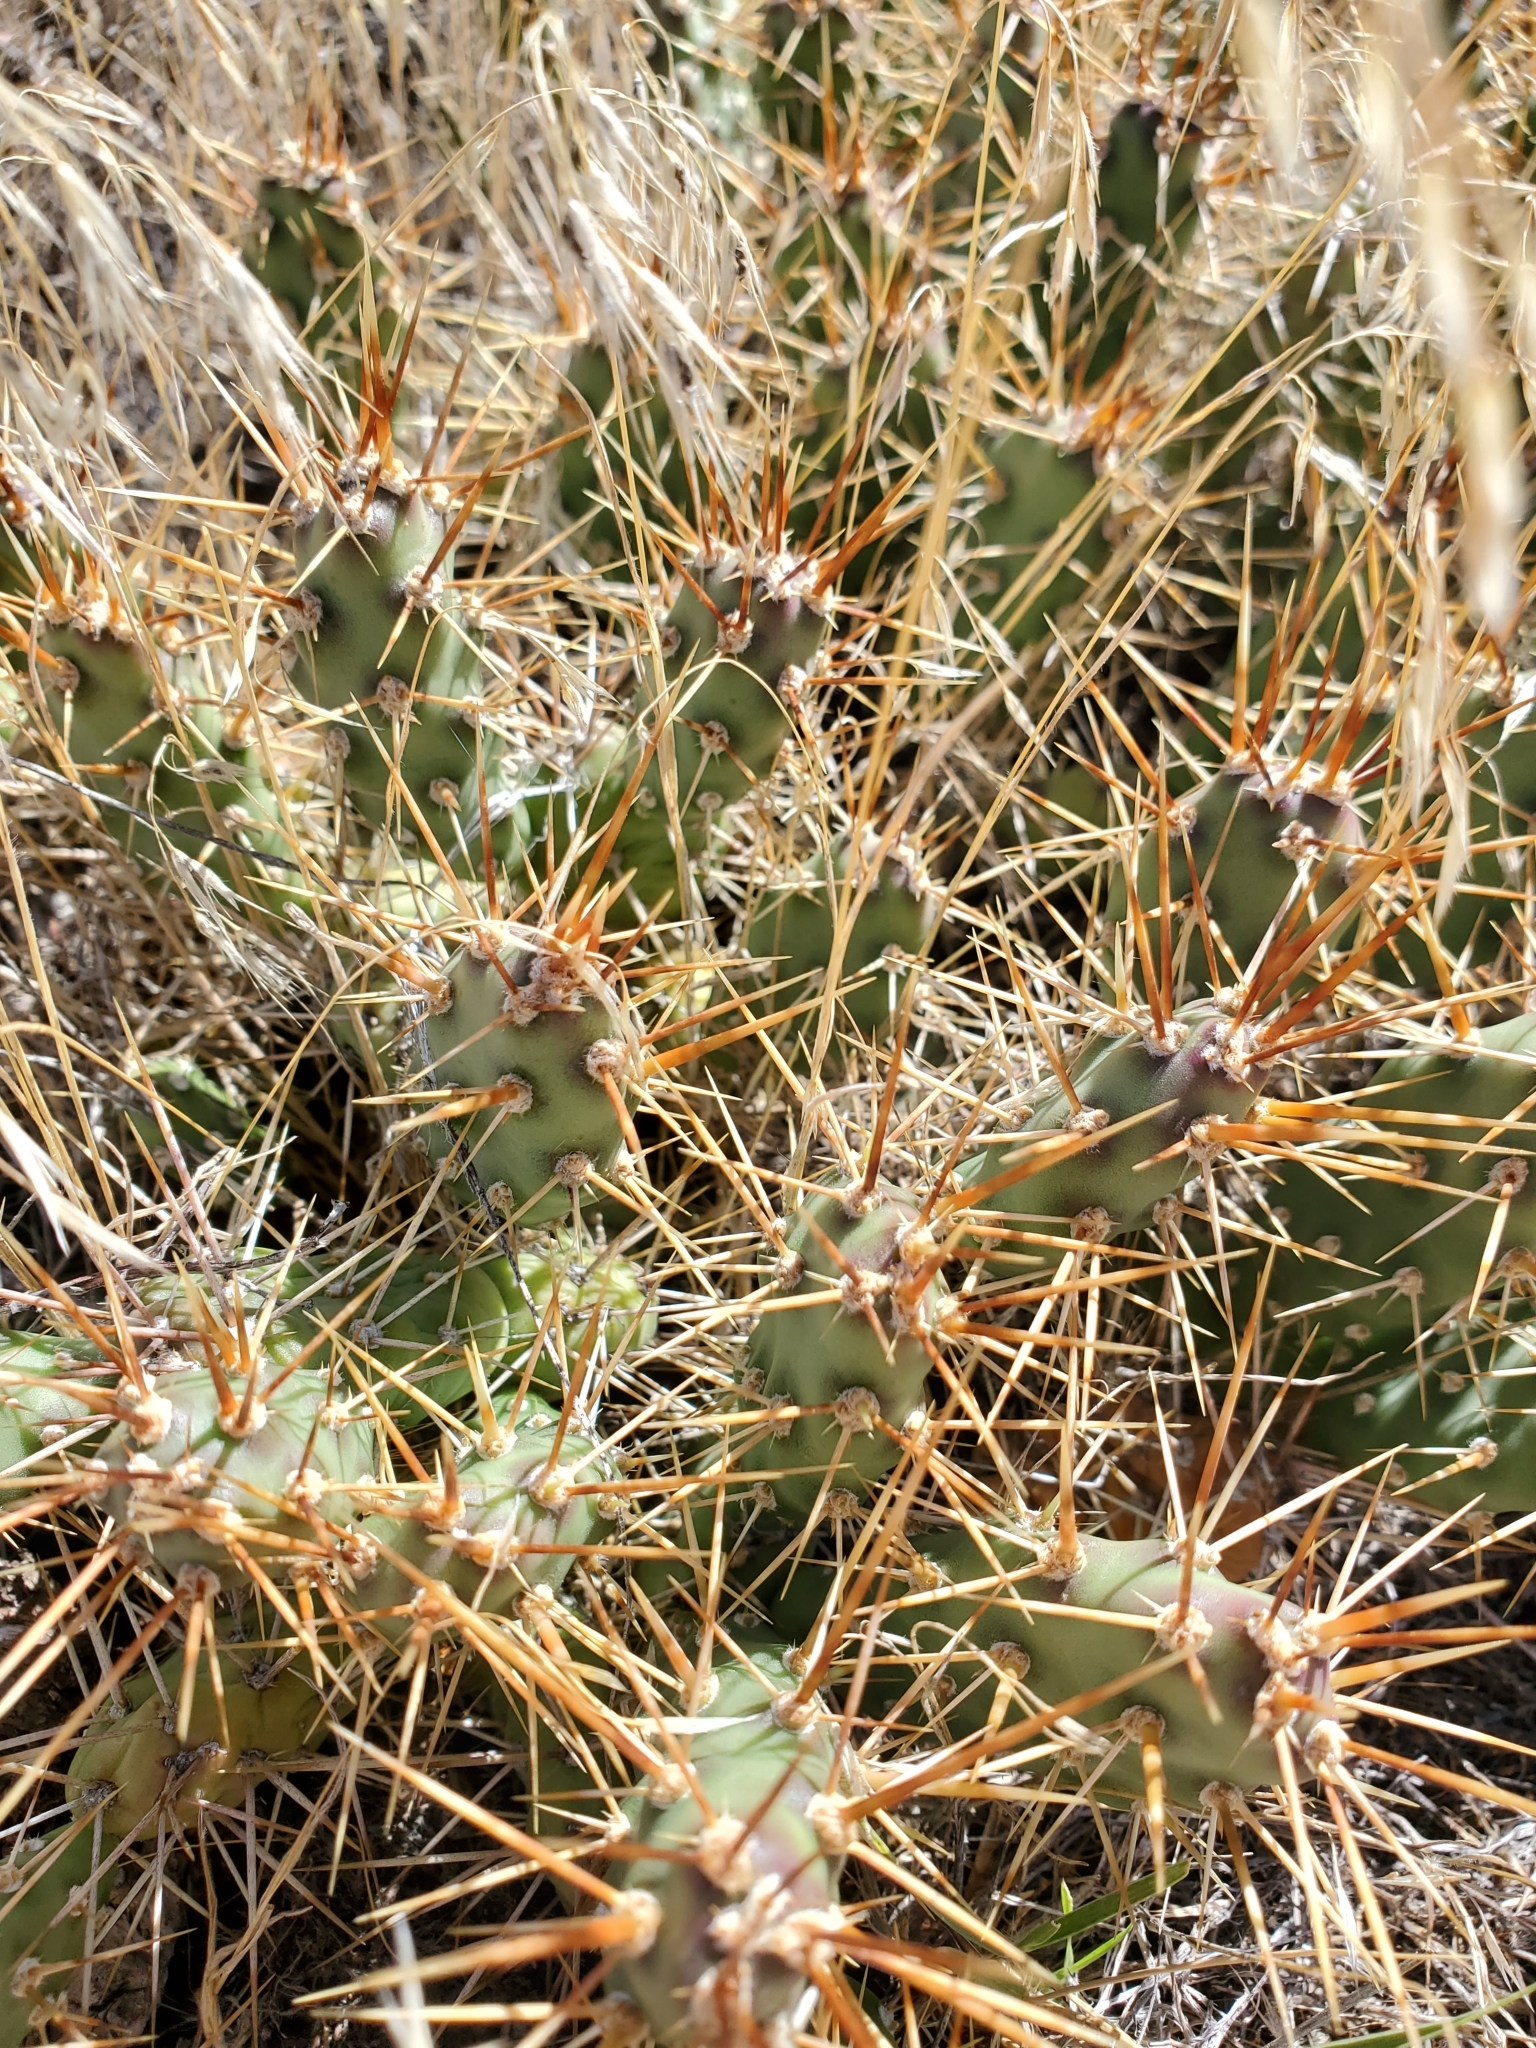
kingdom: Plantae
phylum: Tracheophyta
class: Magnoliopsida
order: Caryophyllales
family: Cactaceae
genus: Opuntia
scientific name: Opuntia fragilis
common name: Brittle cactus
